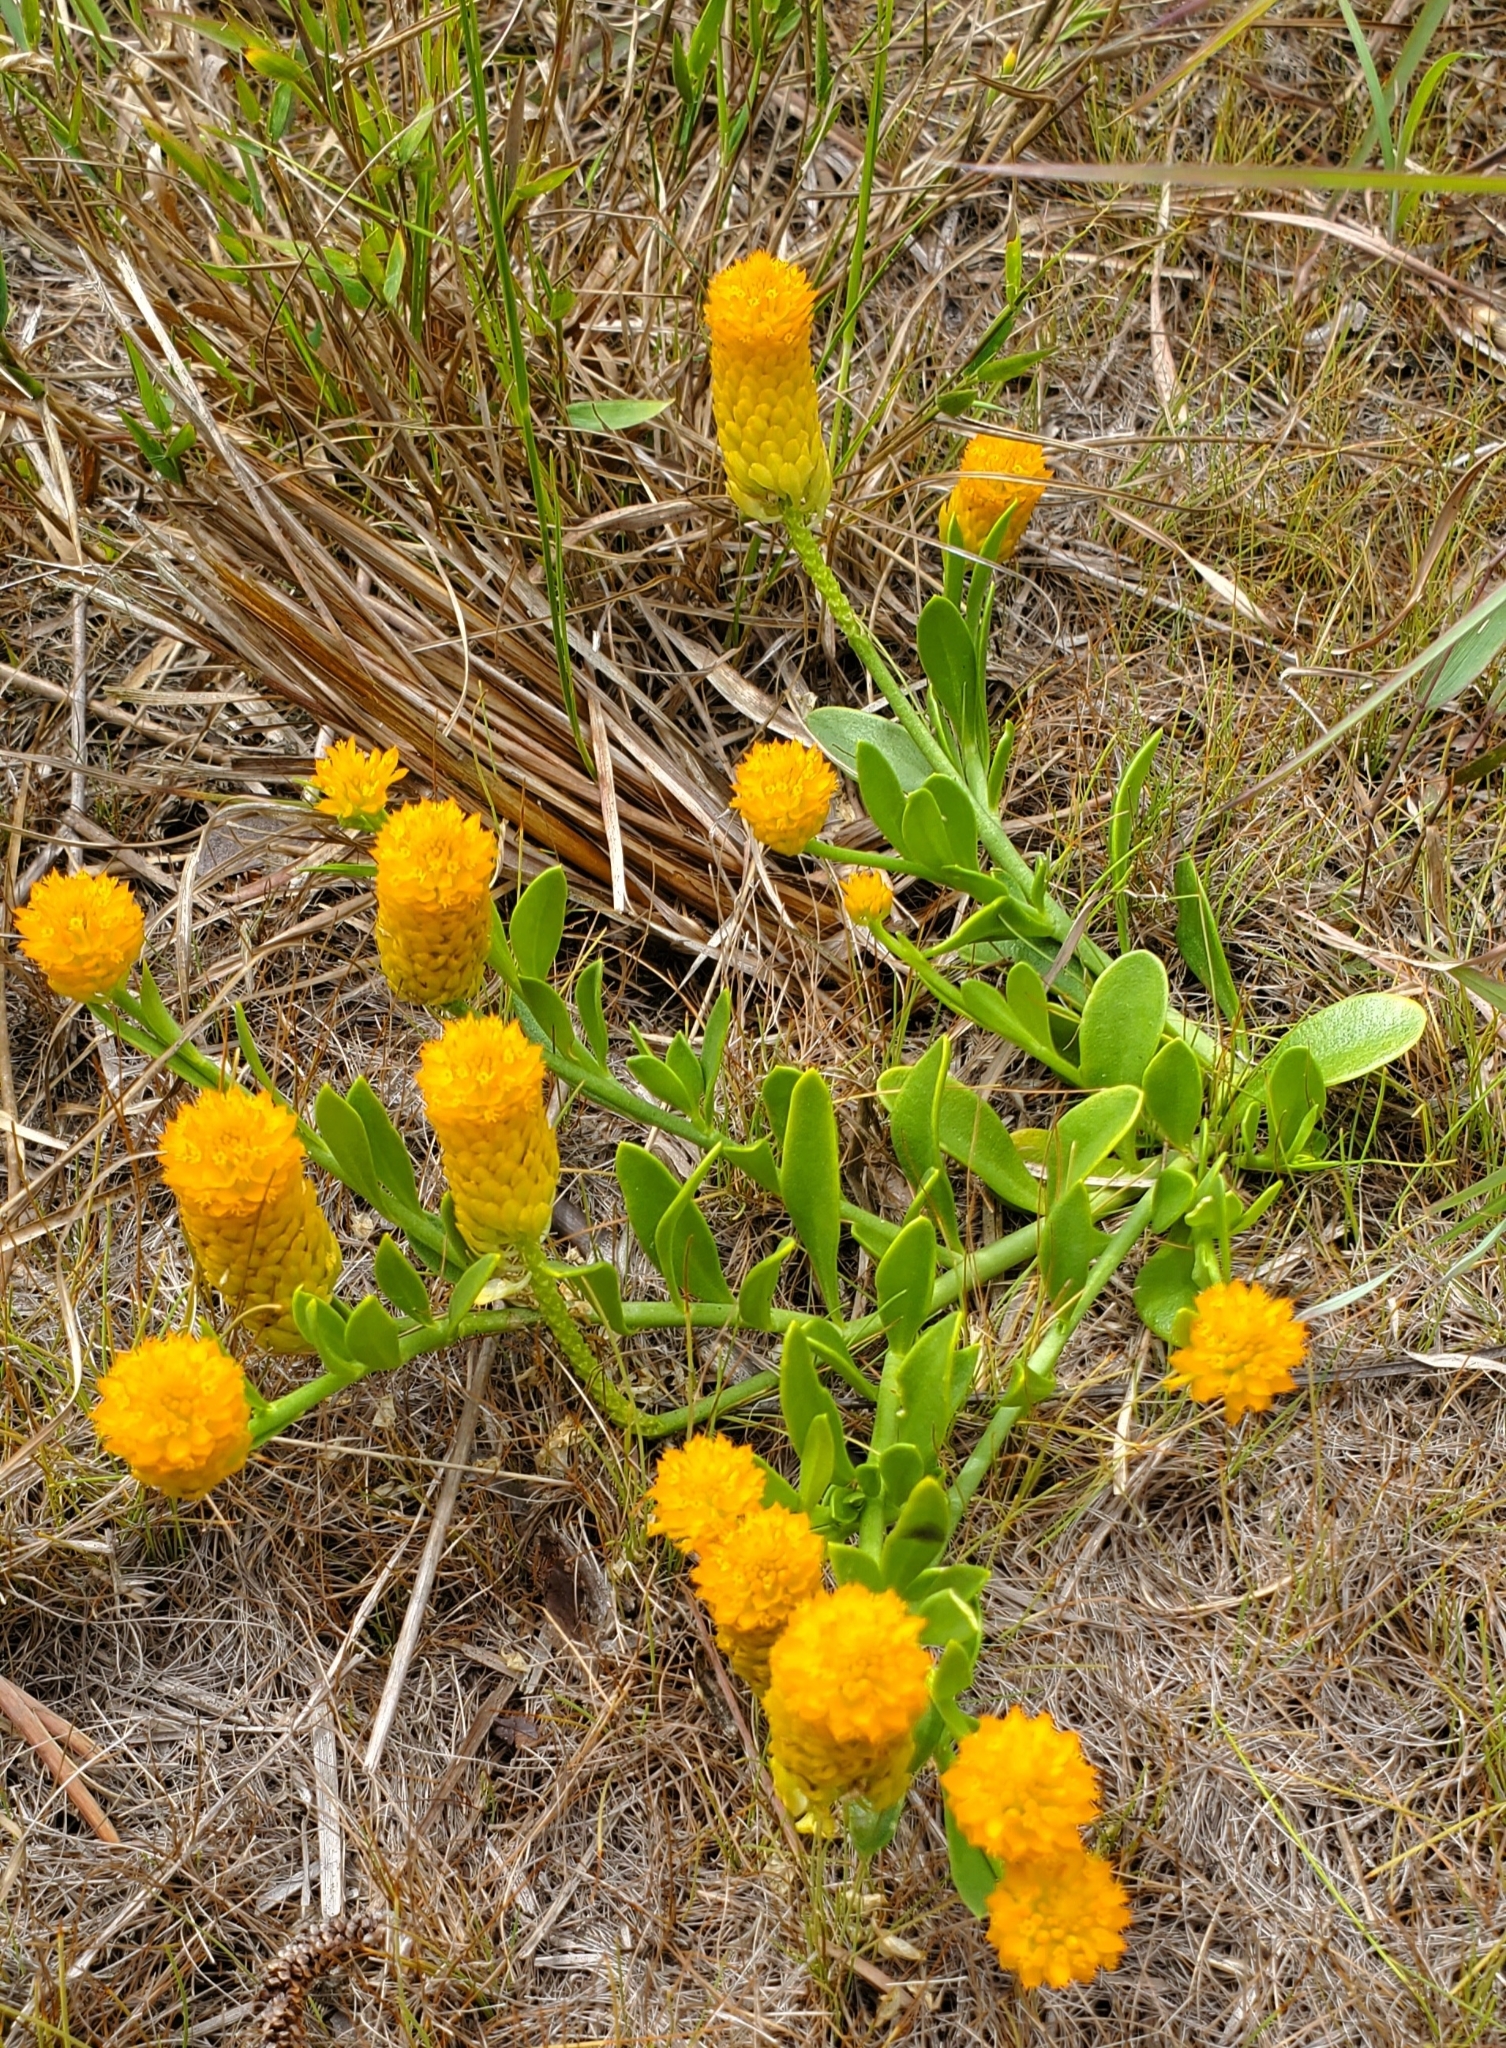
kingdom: Plantae
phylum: Tracheophyta
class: Magnoliopsida
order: Fabales
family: Polygalaceae
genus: Polygala
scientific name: Polygala lutea
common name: Orange milkwort
